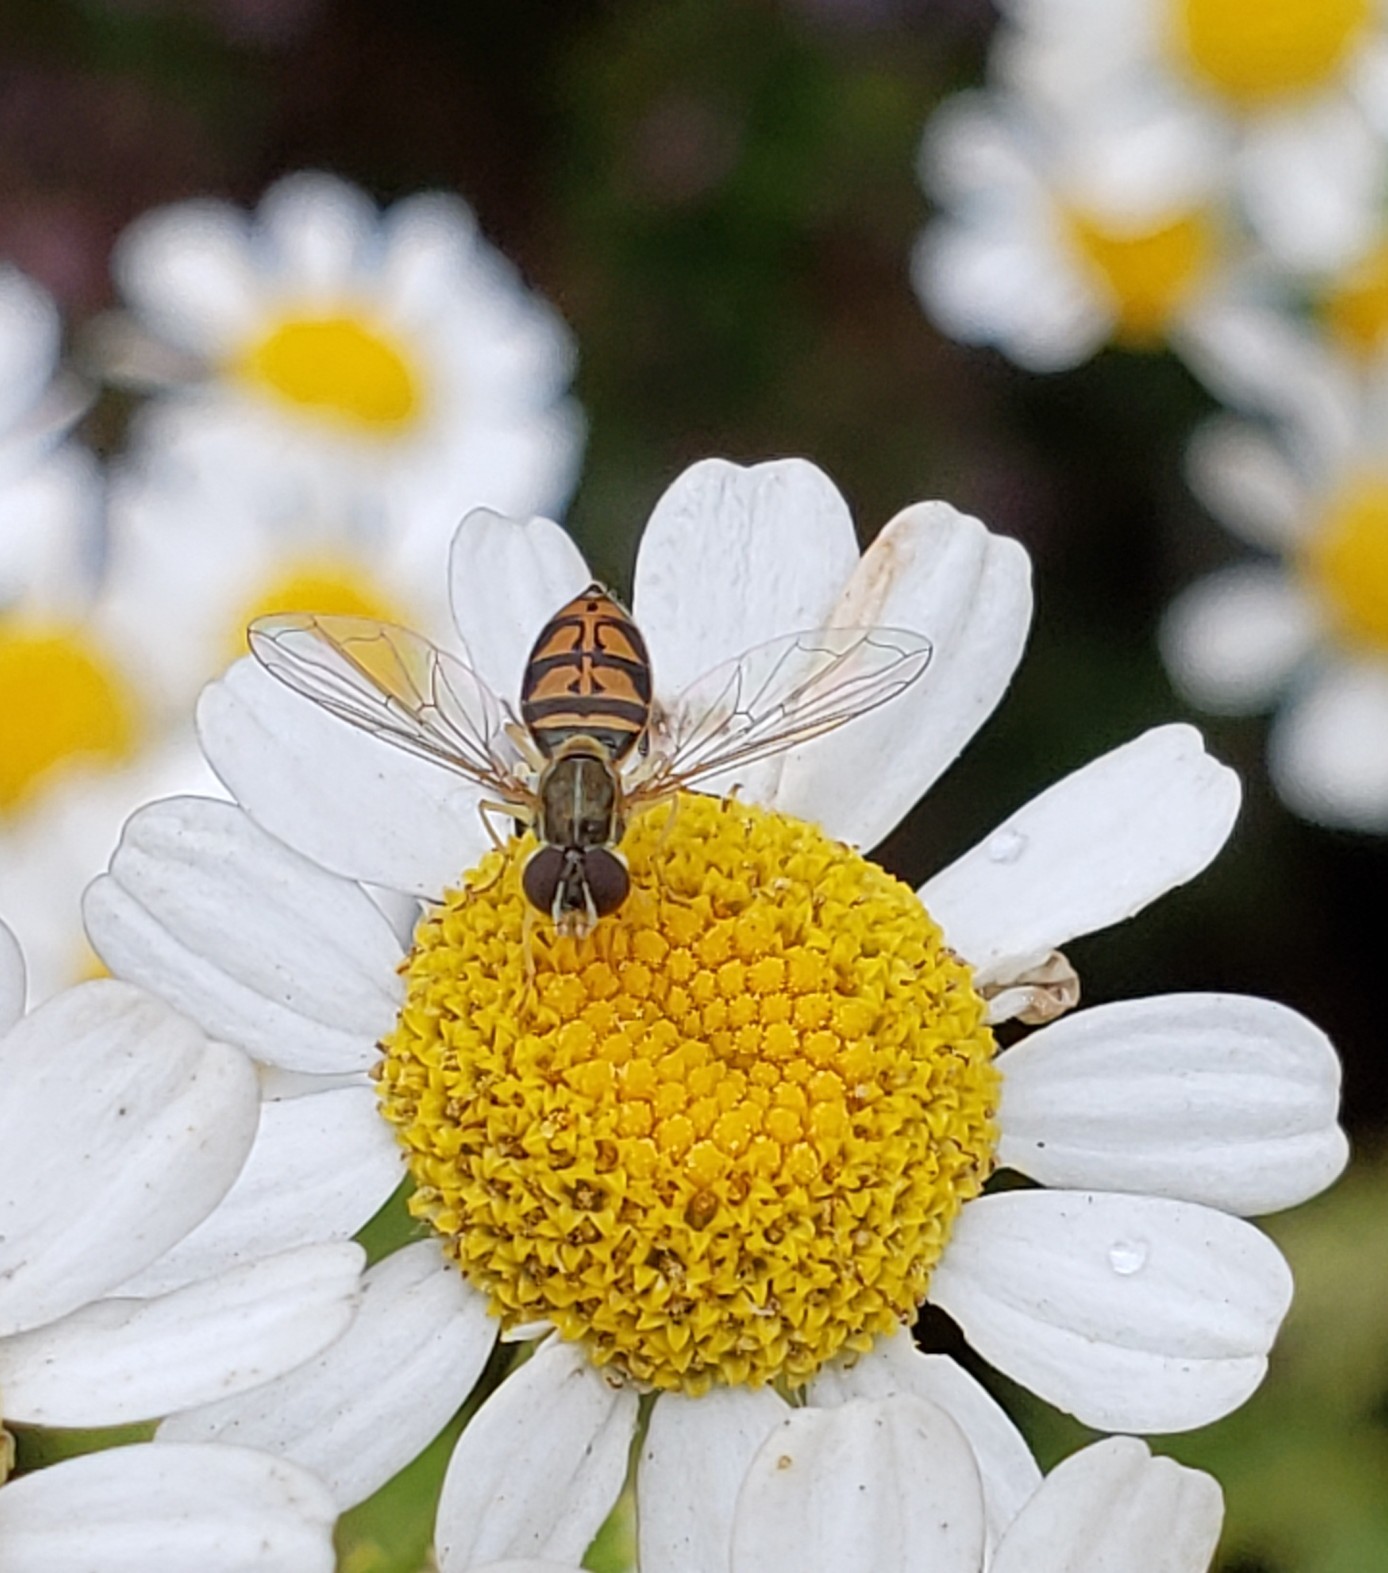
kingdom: Animalia
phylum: Arthropoda
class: Insecta
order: Diptera
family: Syrphidae
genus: Toxomerus
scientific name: Toxomerus marginatus
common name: Syrphid fly
